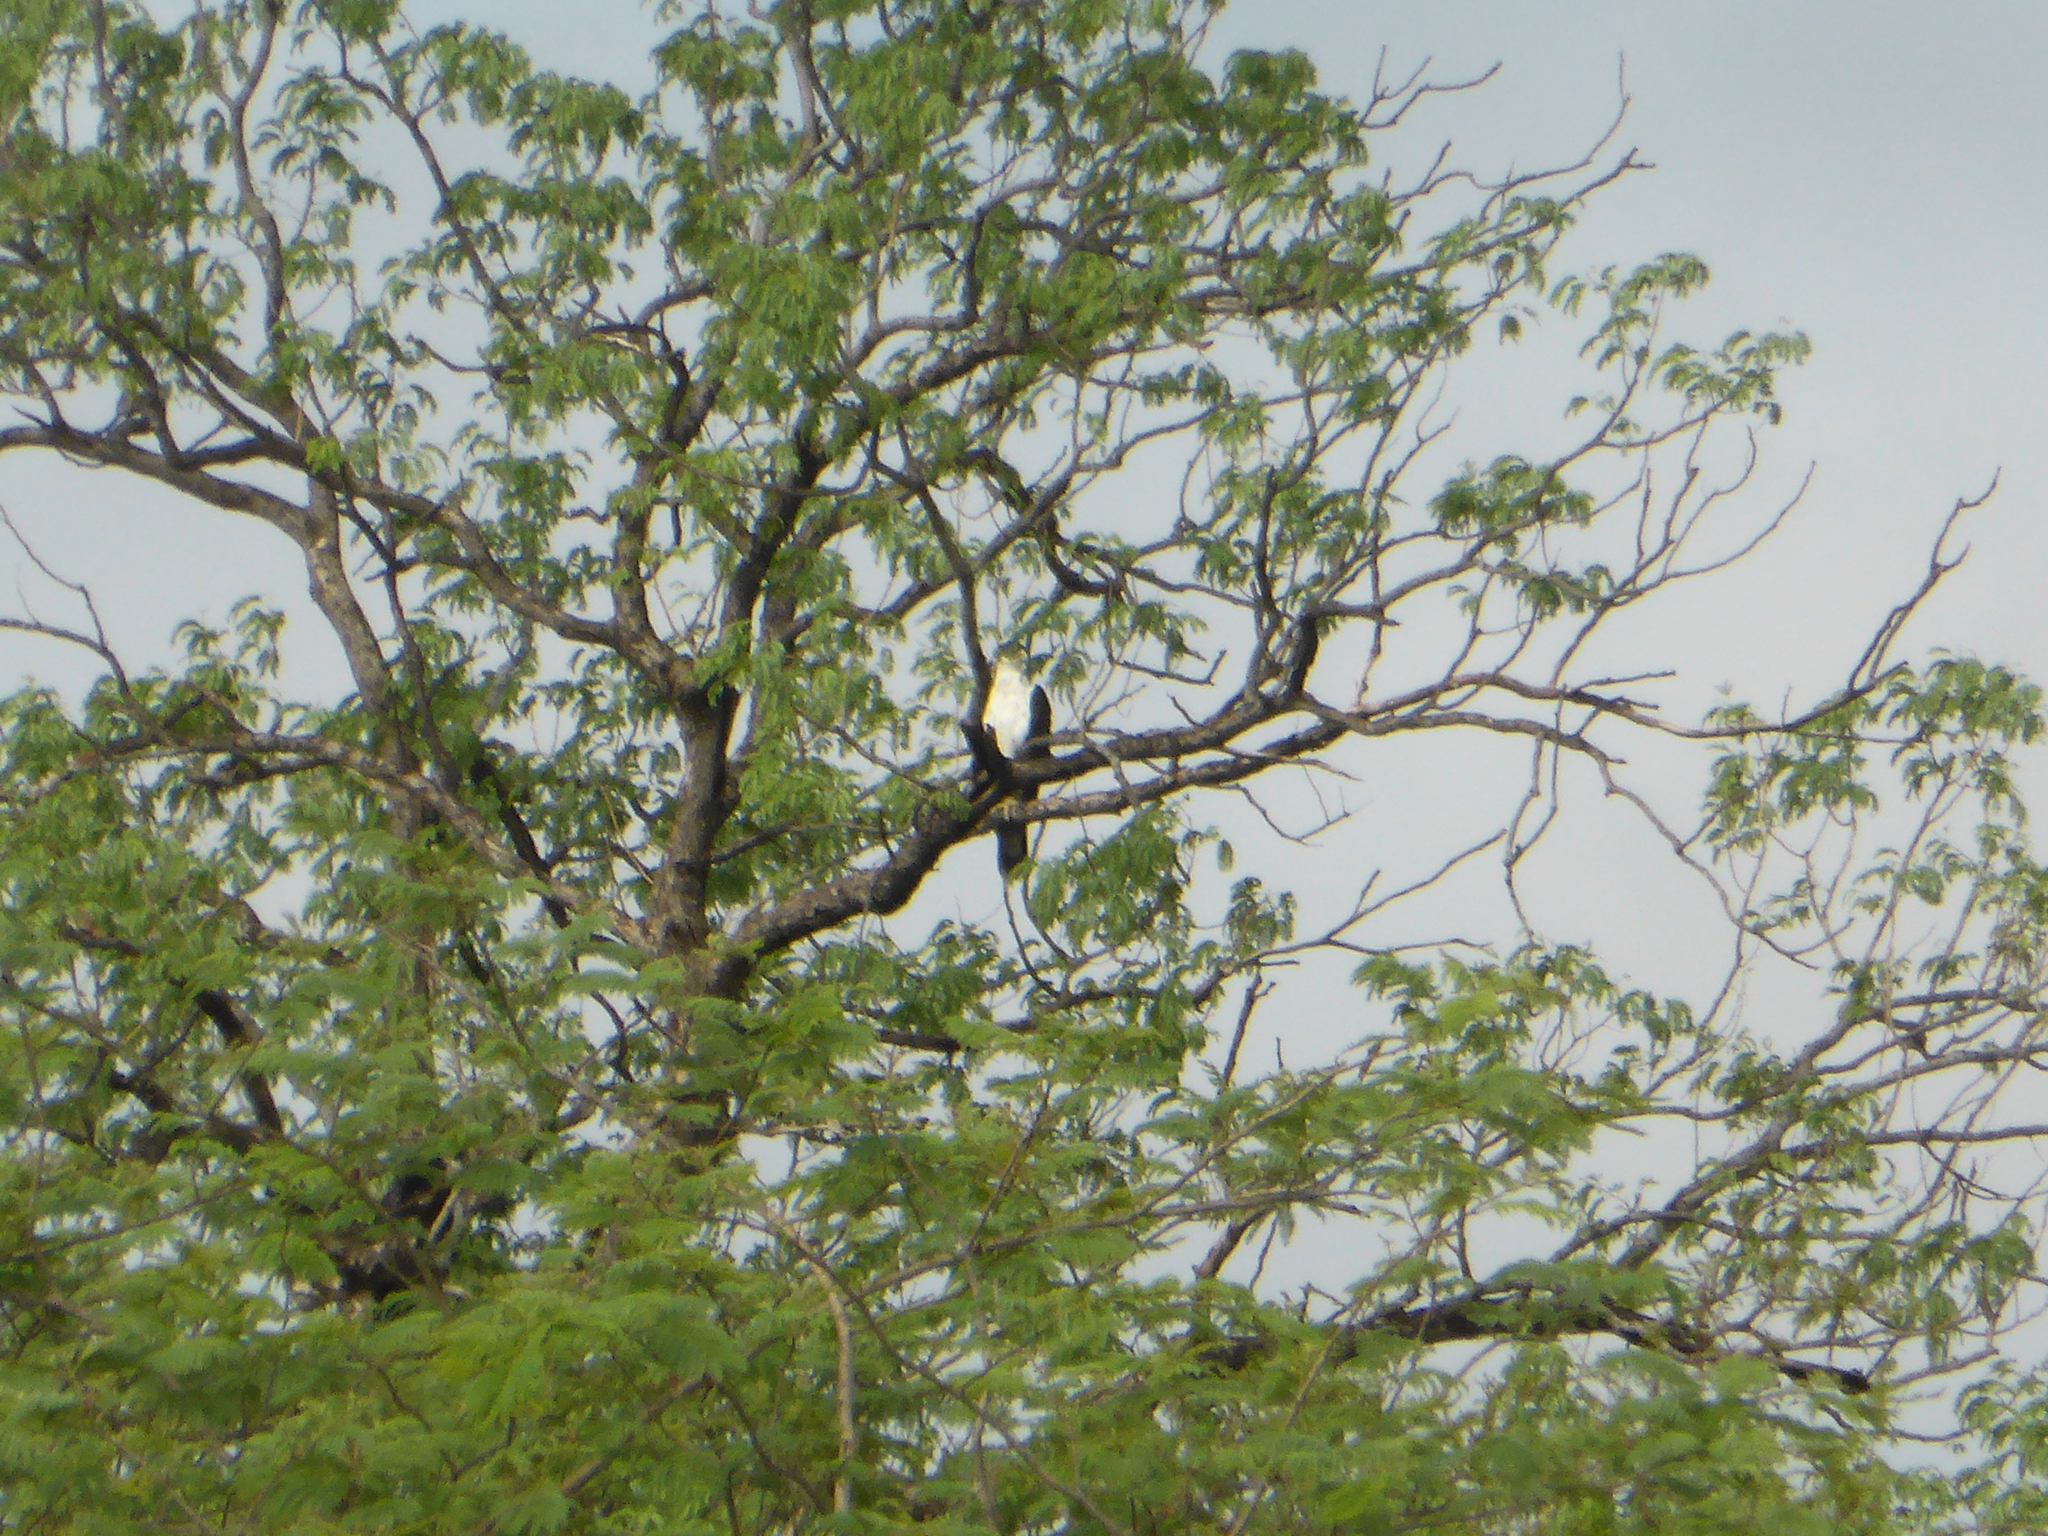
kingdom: Animalia
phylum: Chordata
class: Aves
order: Accipitriformes
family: Accipitridae
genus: Haliaeetus
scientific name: Haliaeetus vocifer
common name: African fish eagle
